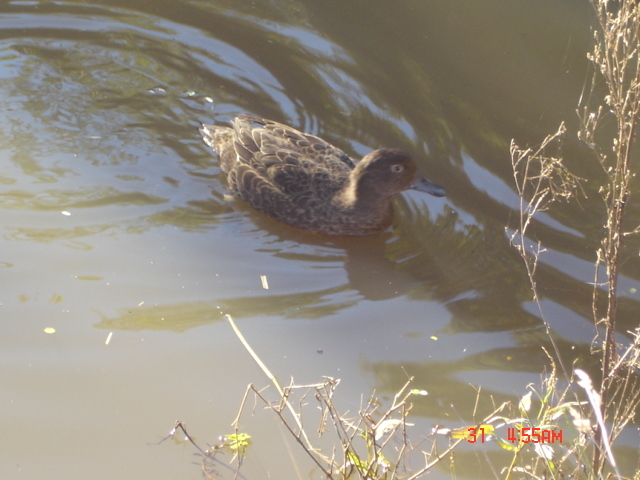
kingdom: Animalia
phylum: Chordata
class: Aves
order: Anseriformes
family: Anatidae
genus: Anas
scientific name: Anas chlorotis
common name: Brown teal
